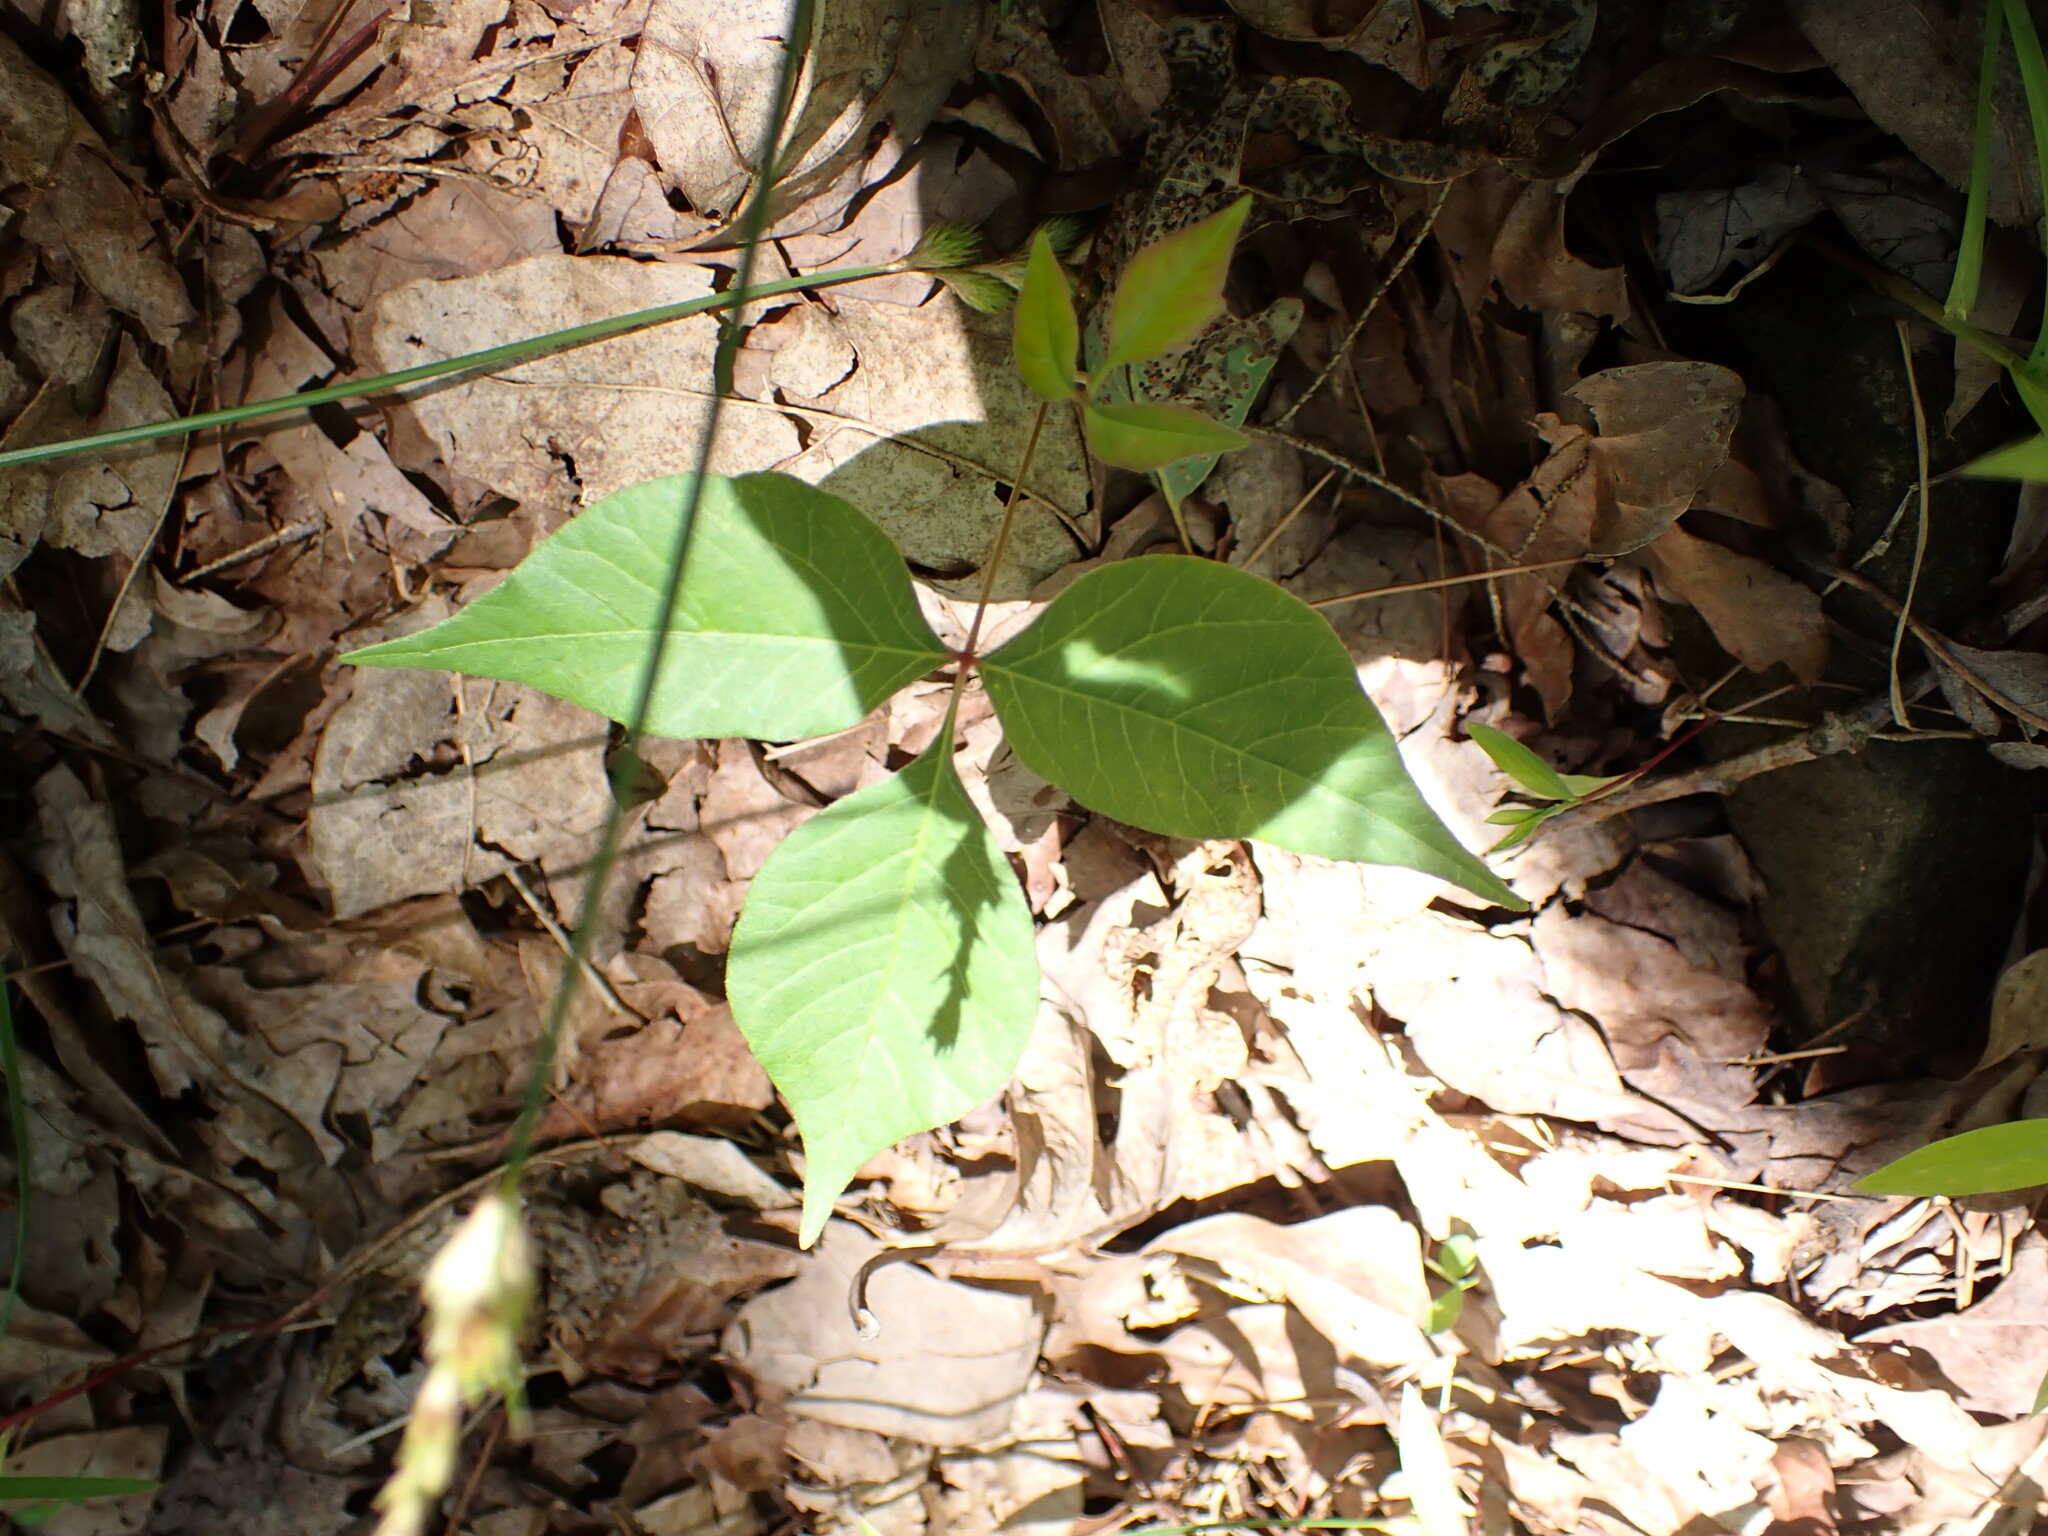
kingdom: Plantae
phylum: Tracheophyta
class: Magnoliopsida
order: Sapindales
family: Anacardiaceae
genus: Toxicodendron
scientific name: Toxicodendron radicans
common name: Poison ivy
